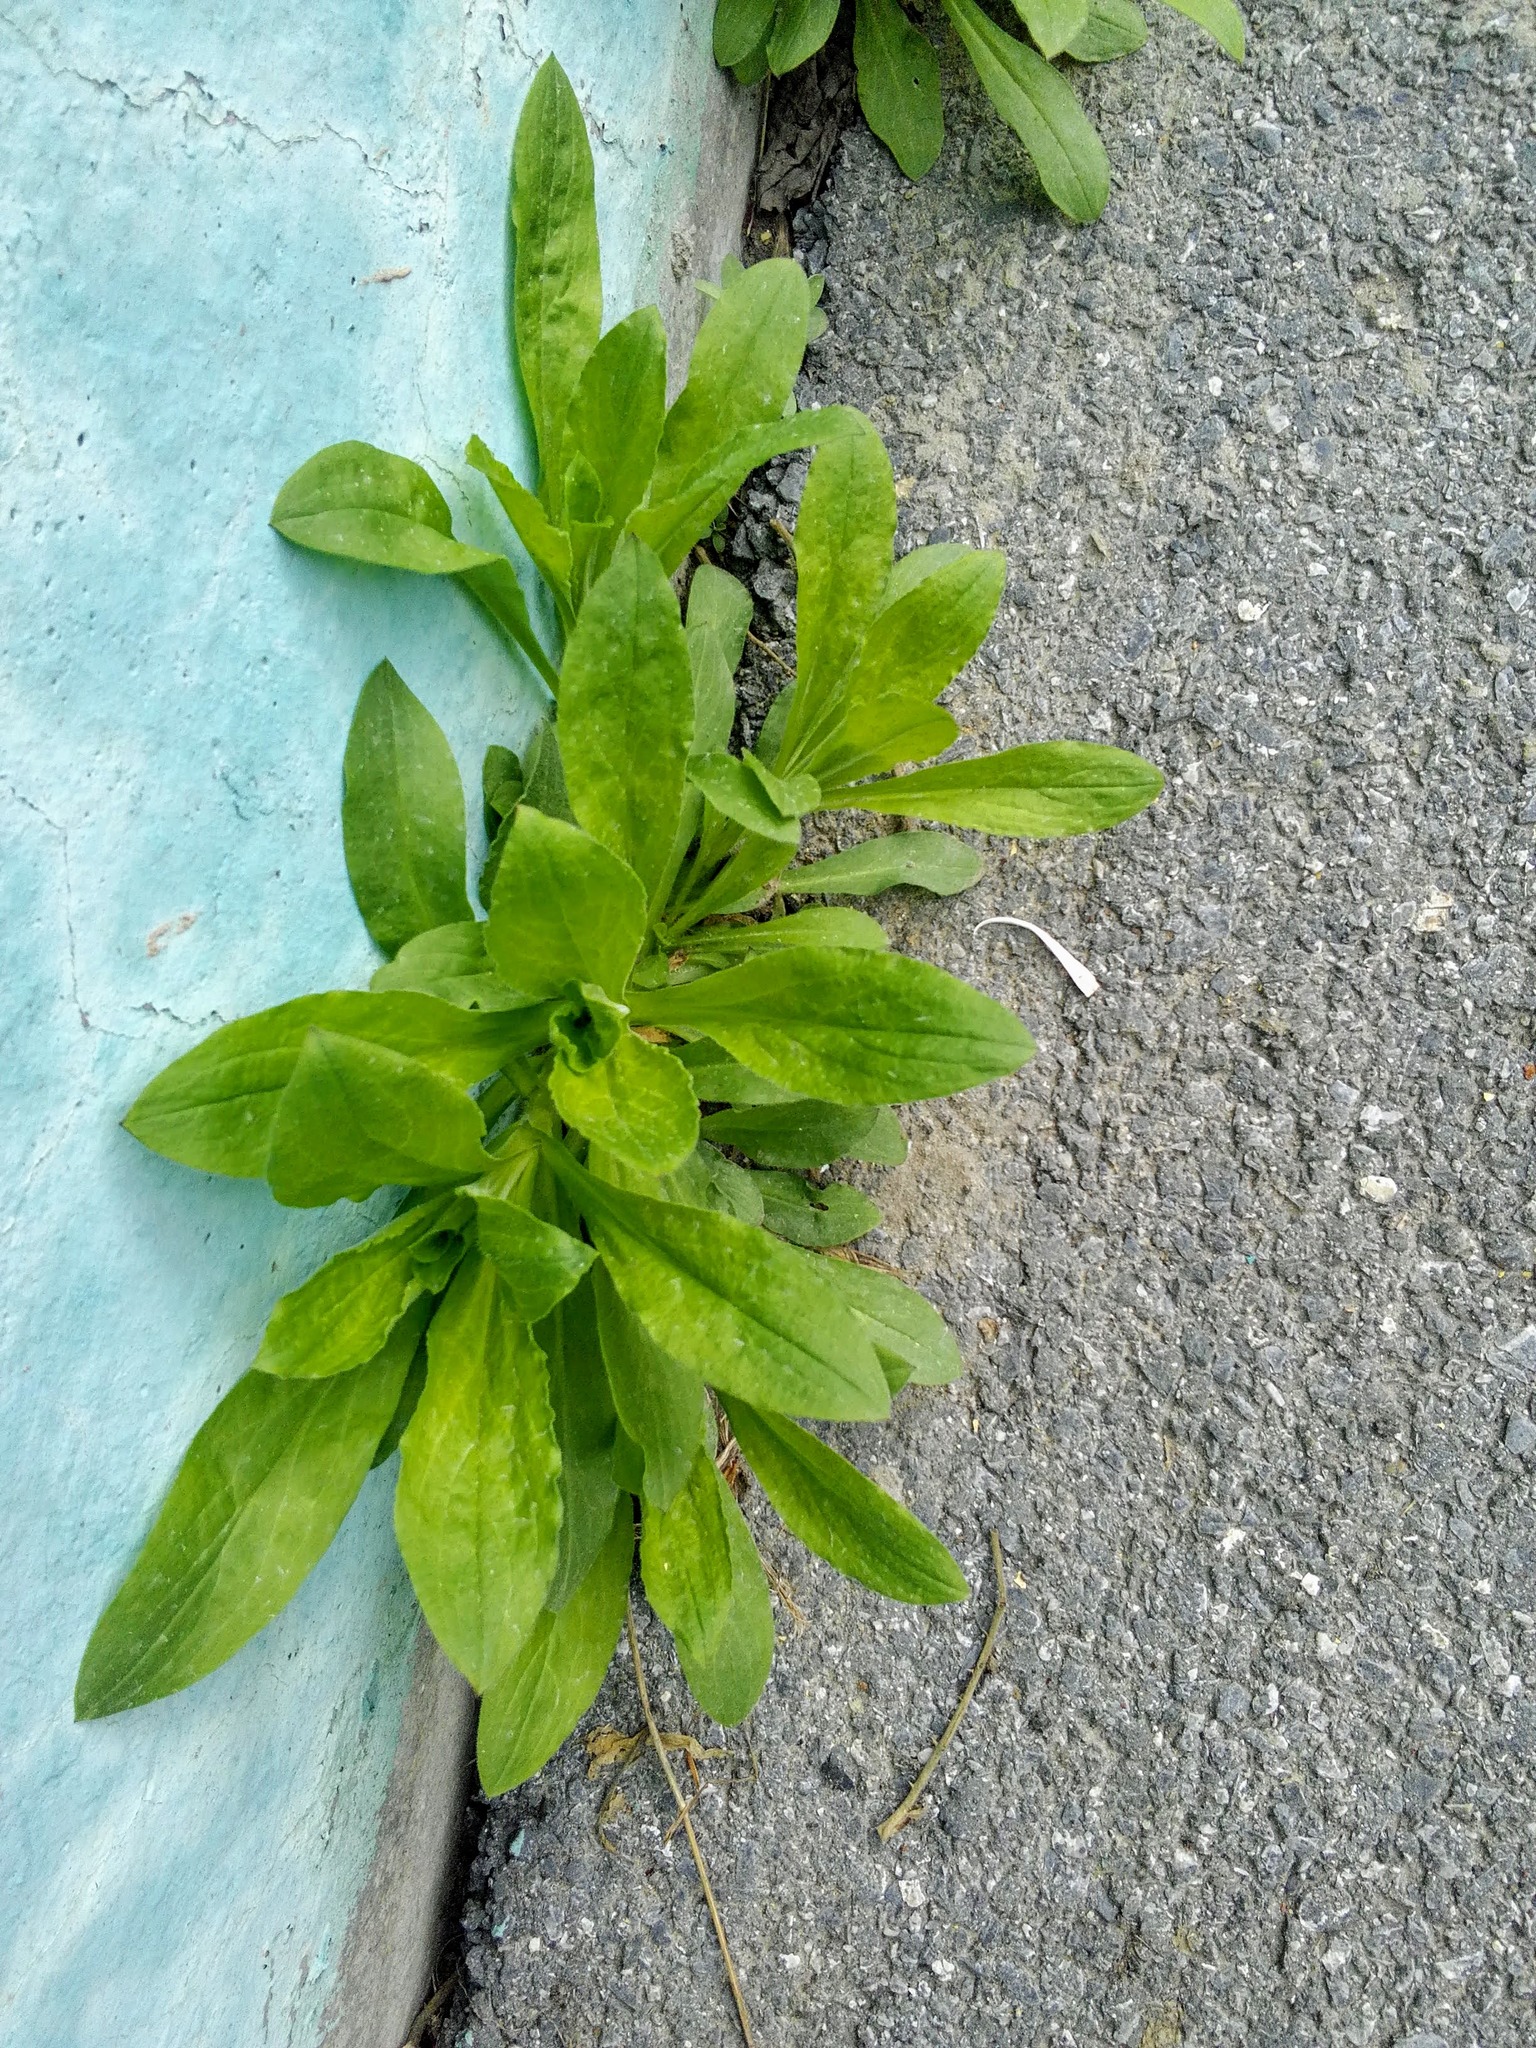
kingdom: Plantae
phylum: Tracheophyta
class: Magnoliopsida
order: Caryophyllales
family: Caryophyllaceae
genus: Silene
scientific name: Silene latifolia
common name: White campion
